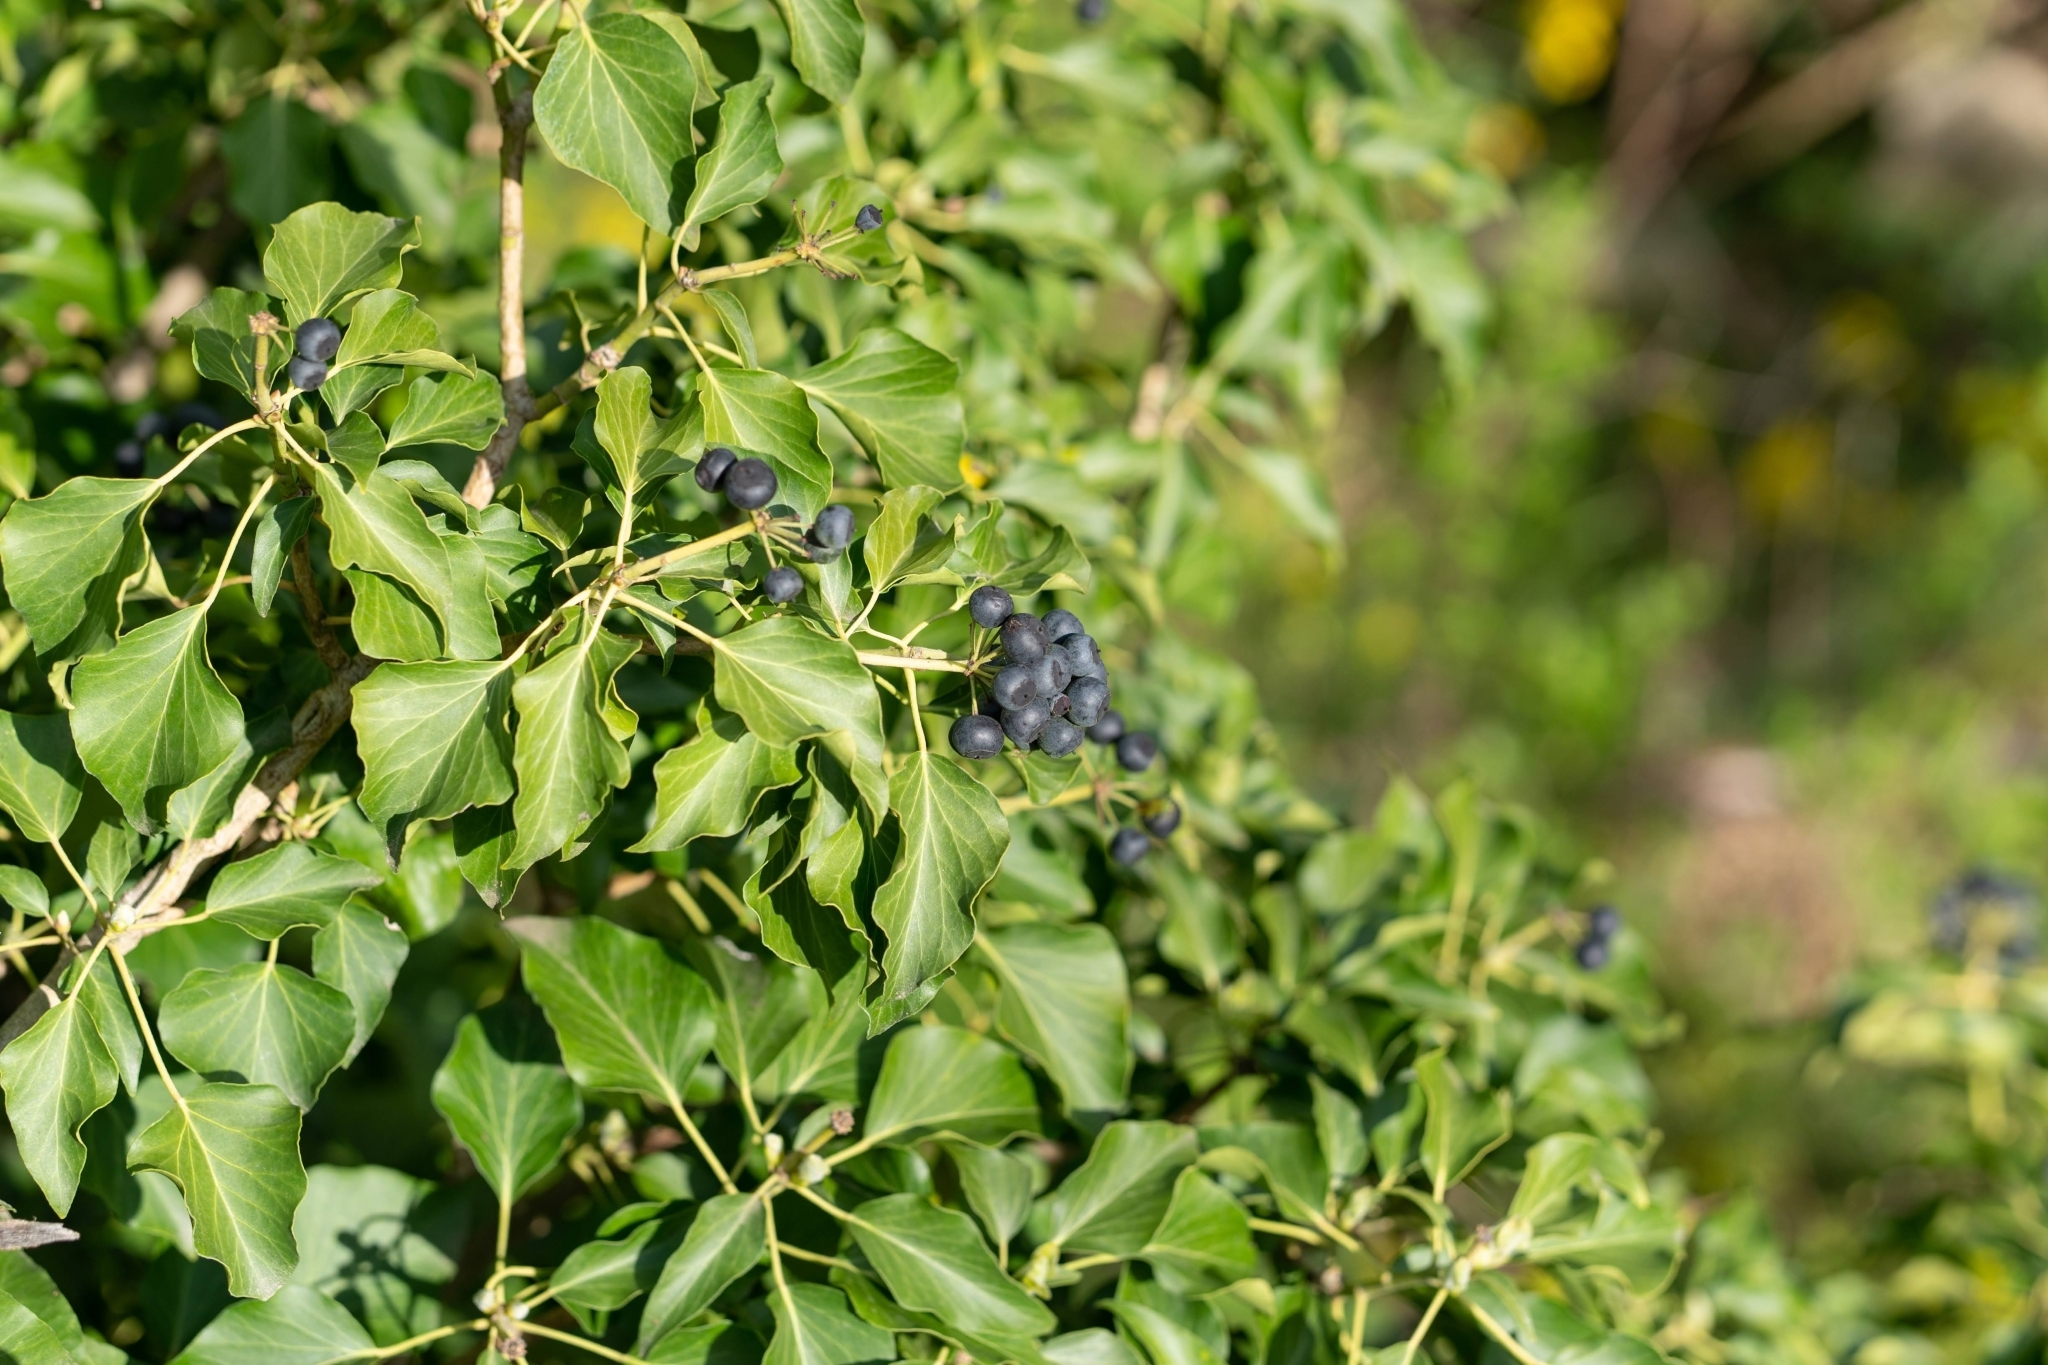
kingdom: Plantae
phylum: Tracheophyta
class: Magnoliopsida
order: Apiales
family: Araliaceae
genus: Hedera
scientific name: Hedera helix
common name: Ivy
